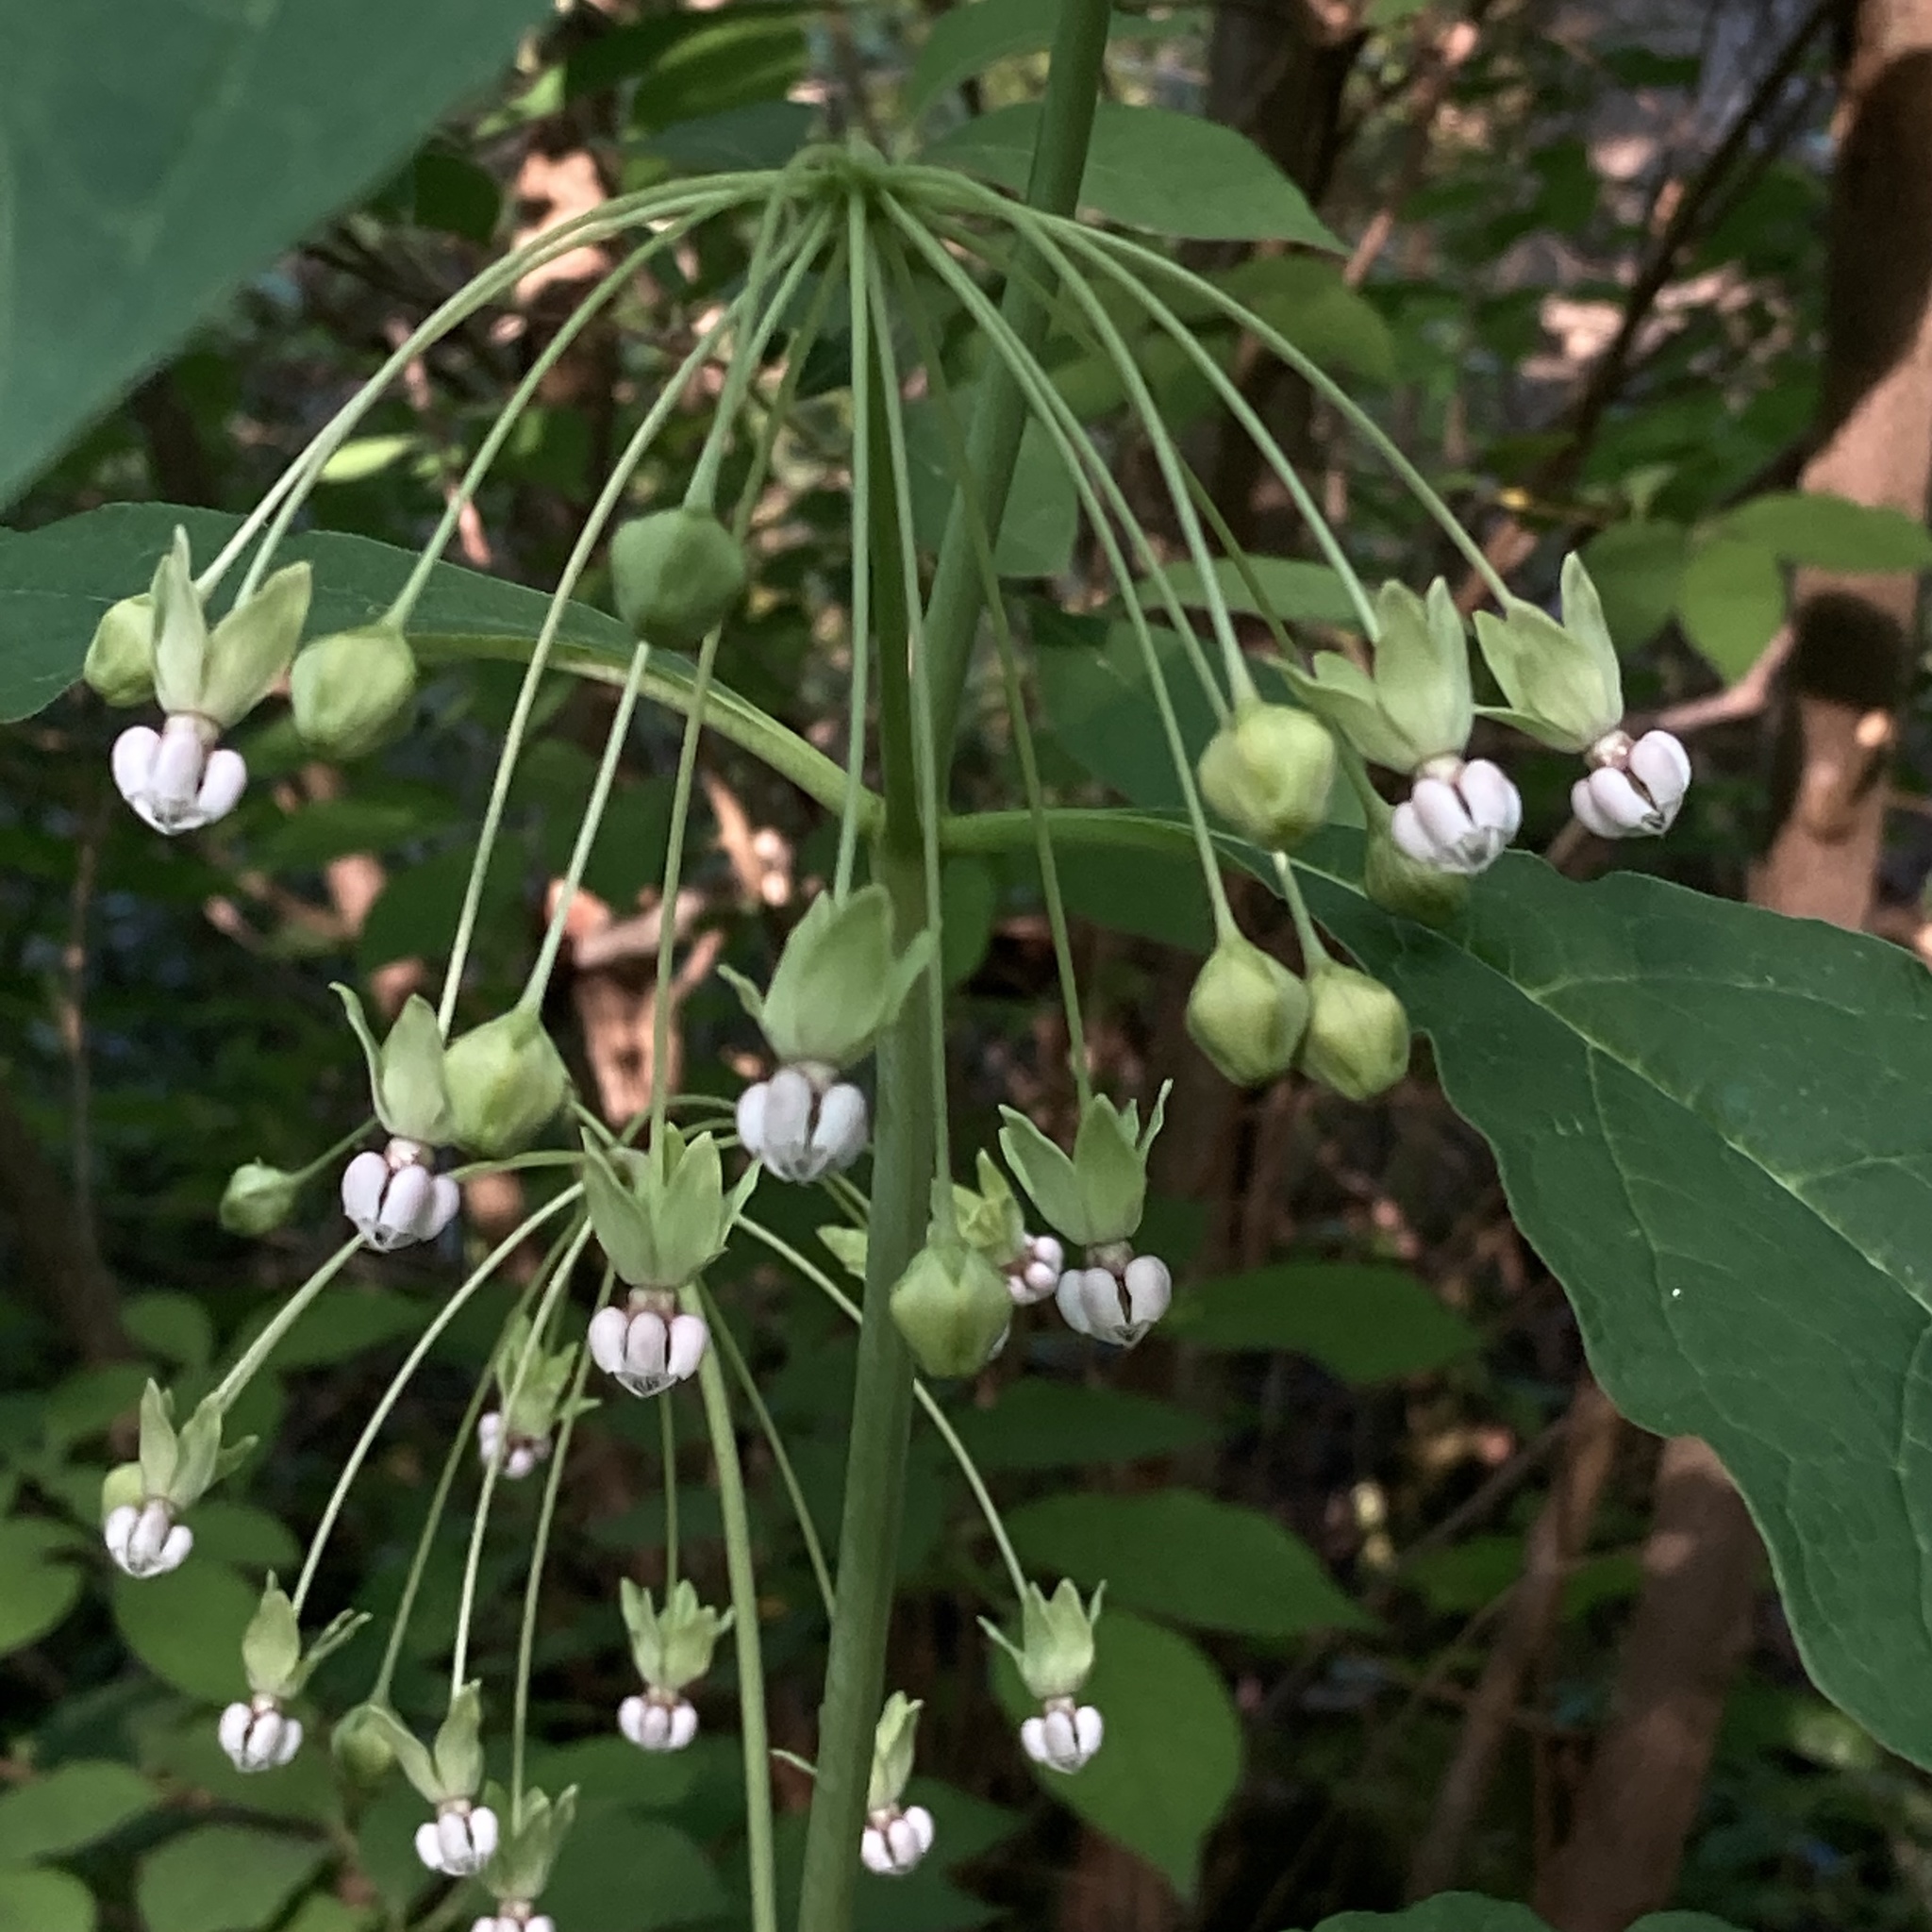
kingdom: Plantae
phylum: Tracheophyta
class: Magnoliopsida
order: Gentianales
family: Apocynaceae
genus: Asclepias
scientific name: Asclepias exaltata
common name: Poke milkweed
